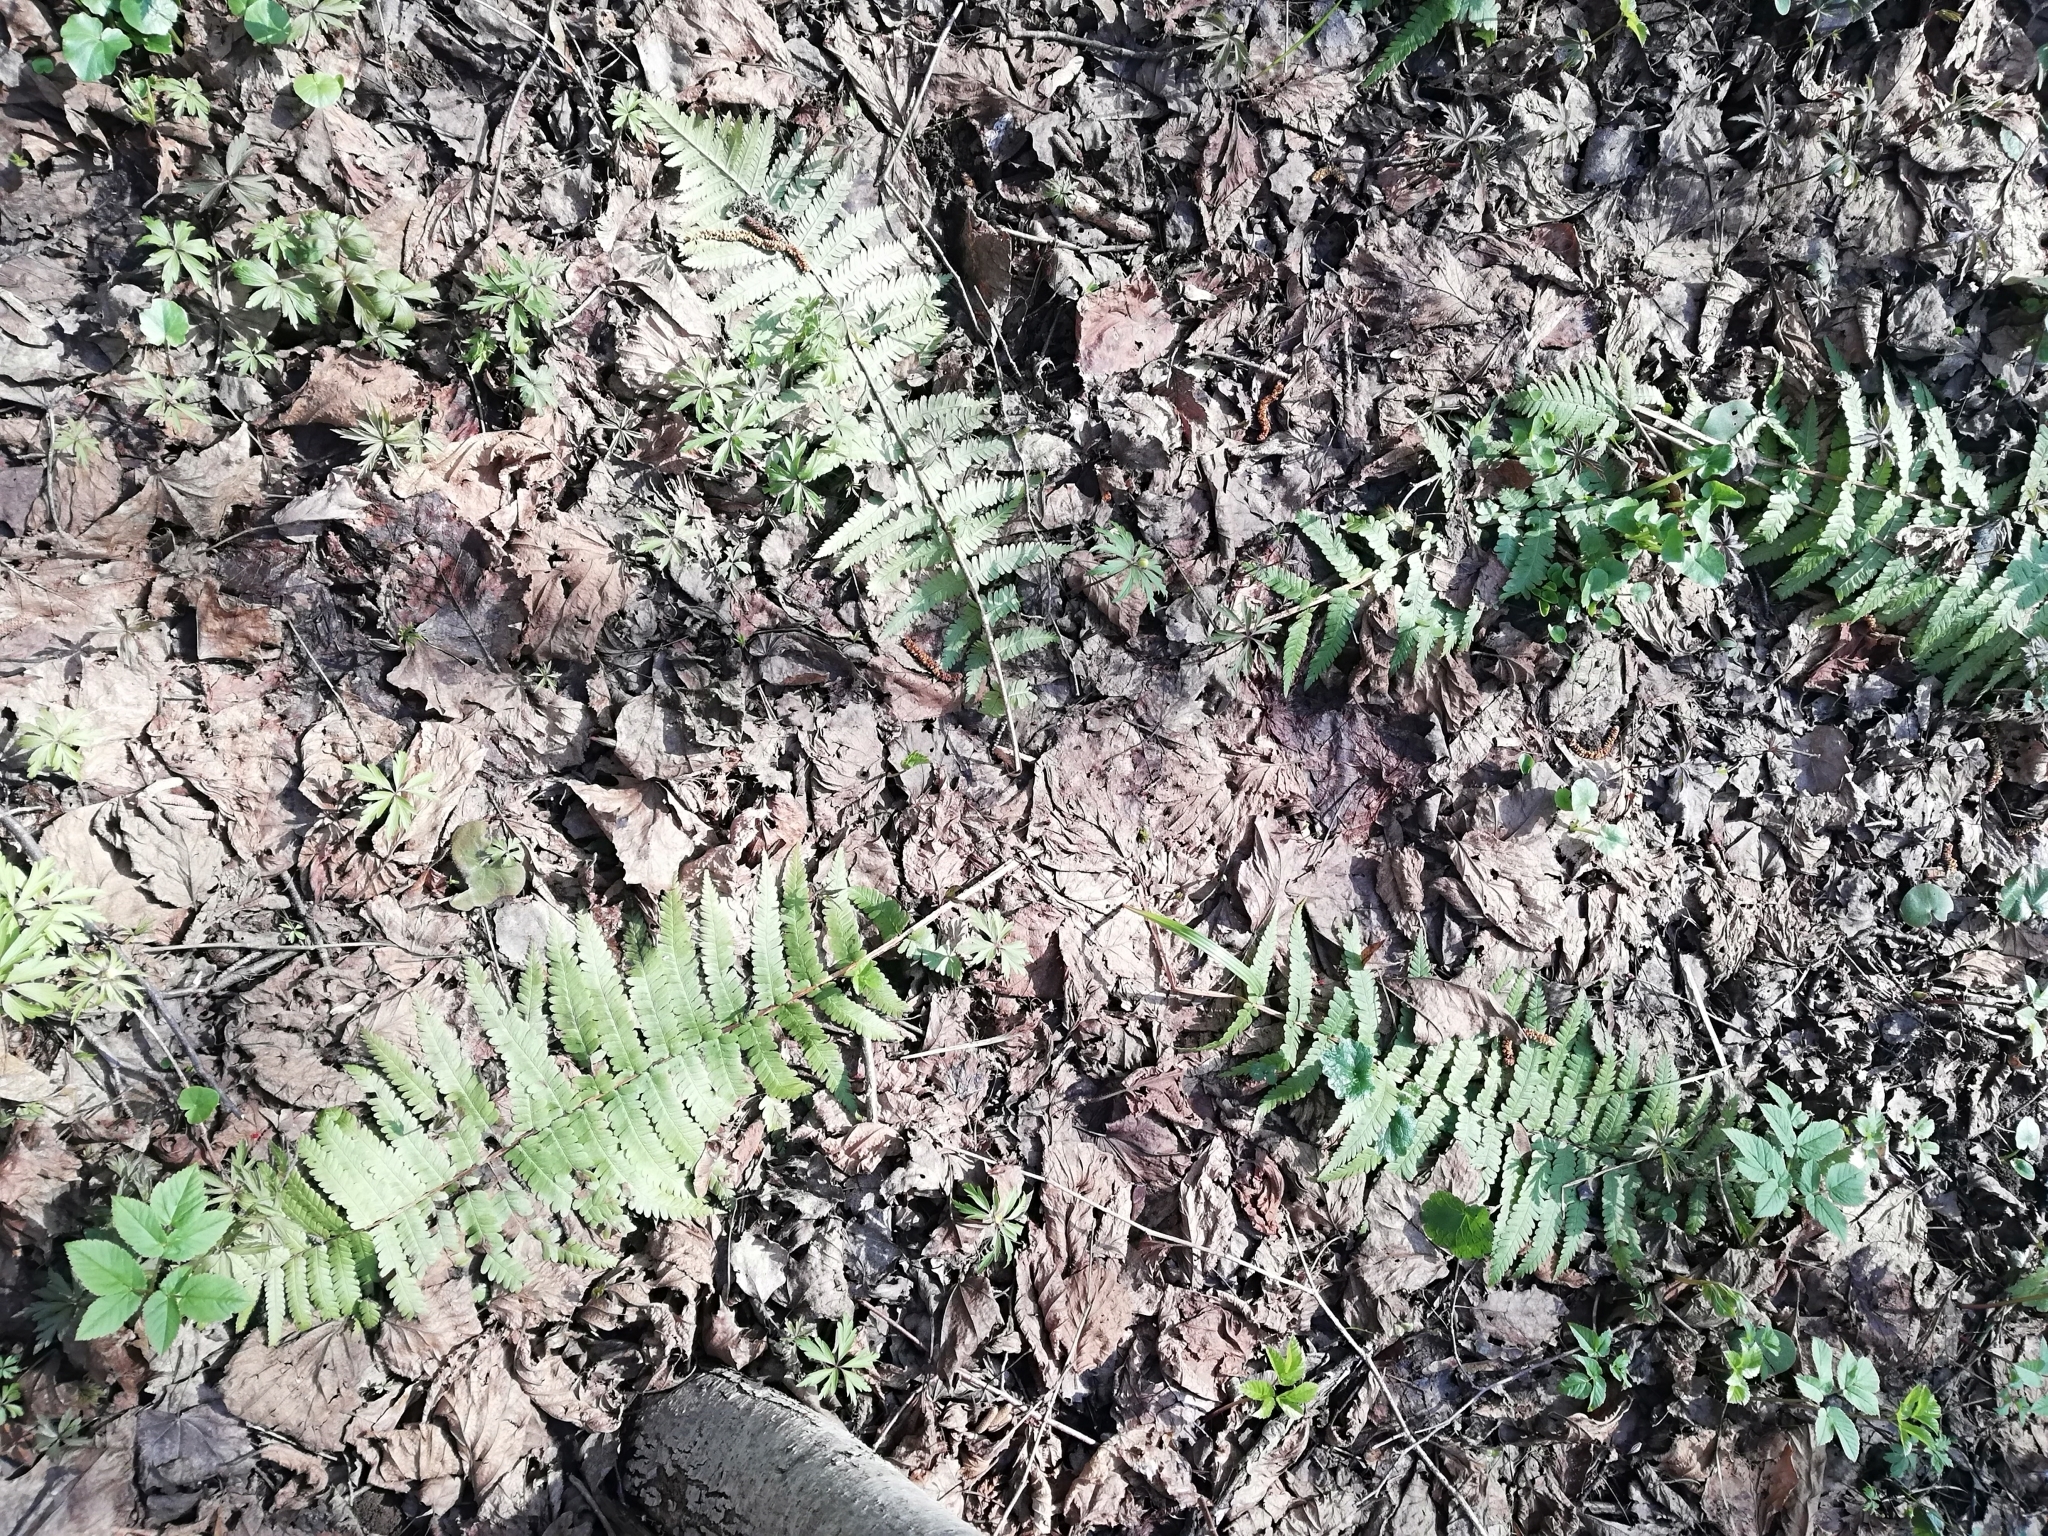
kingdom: Plantae
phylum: Tracheophyta
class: Polypodiopsida
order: Polypodiales
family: Dryopteridaceae
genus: Dryopteris
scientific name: Dryopteris filix-mas
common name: Male fern
